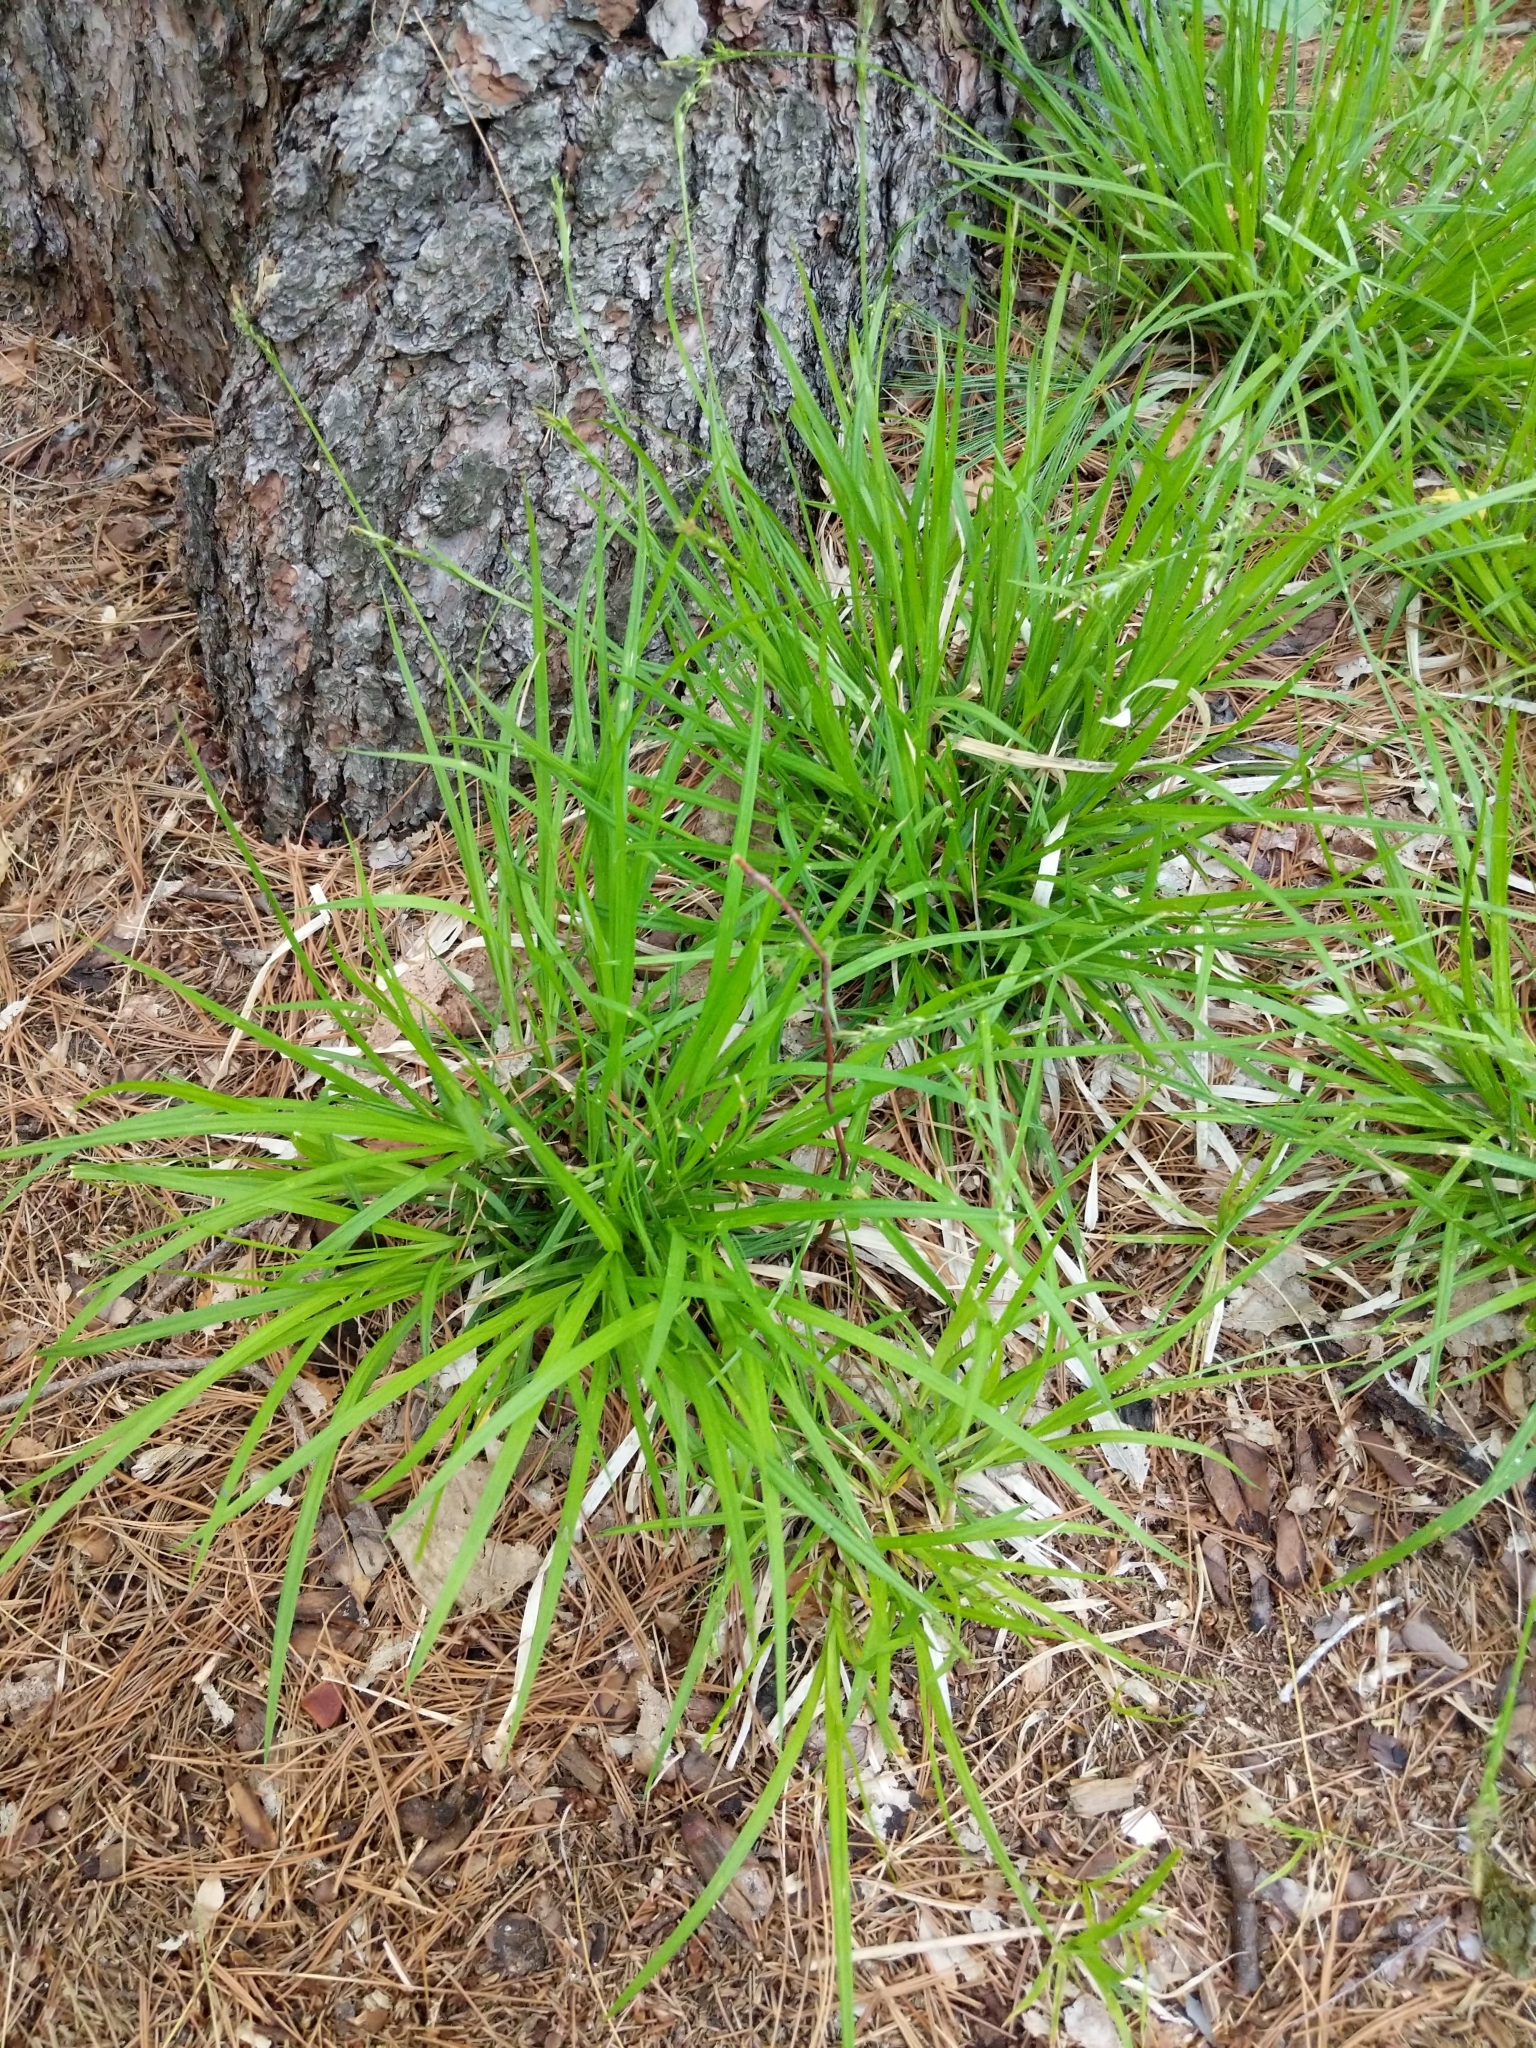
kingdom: Plantae
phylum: Tracheophyta
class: Liliopsida
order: Poales
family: Cyperaceae
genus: Carex
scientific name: Carex communis
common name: Colonial oak sedge
